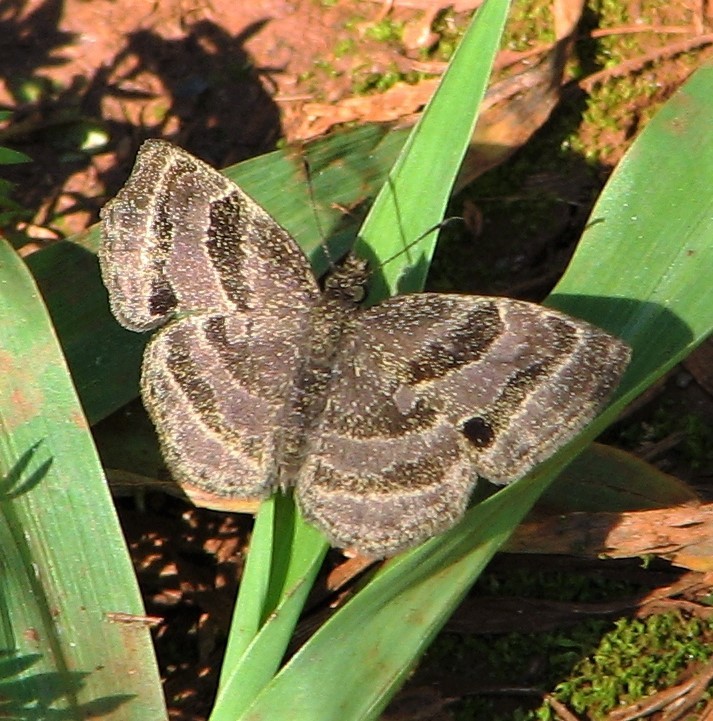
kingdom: Animalia
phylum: Arthropoda
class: Insecta
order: Lepidoptera
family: Hesperiidae
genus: Trina
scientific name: Trina geometrina
